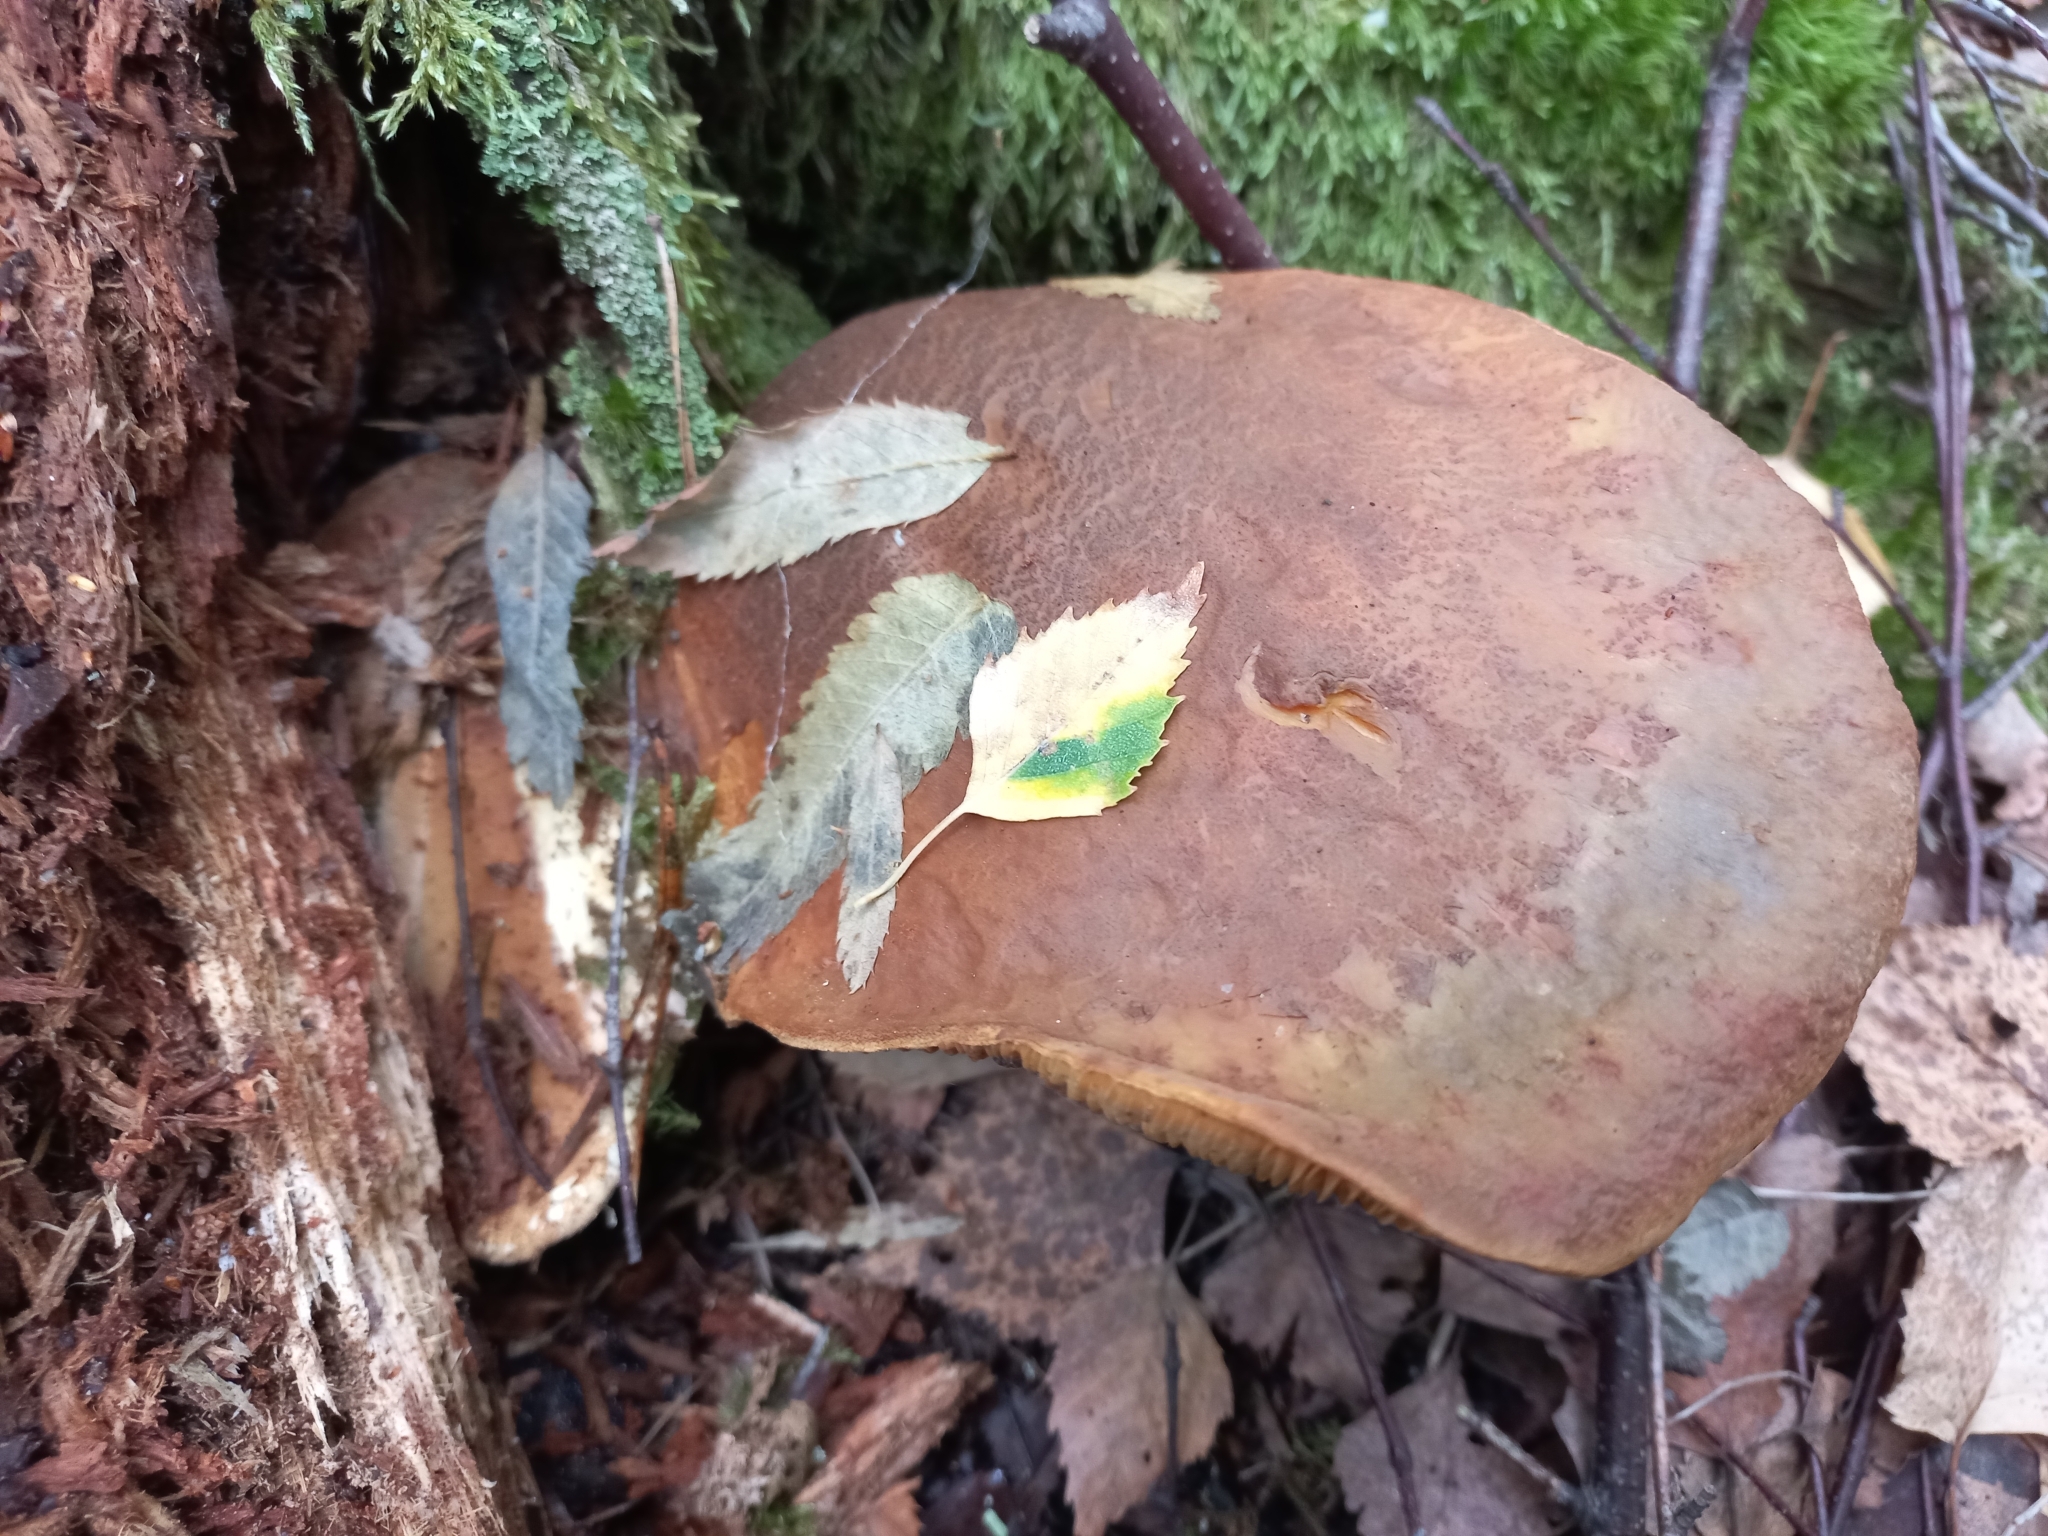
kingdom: Fungi
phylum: Basidiomycota
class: Agaricomycetes
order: Boletales
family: Tapinellaceae
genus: Tapinella
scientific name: Tapinella atrotomentosa
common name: Velvet rollrim
